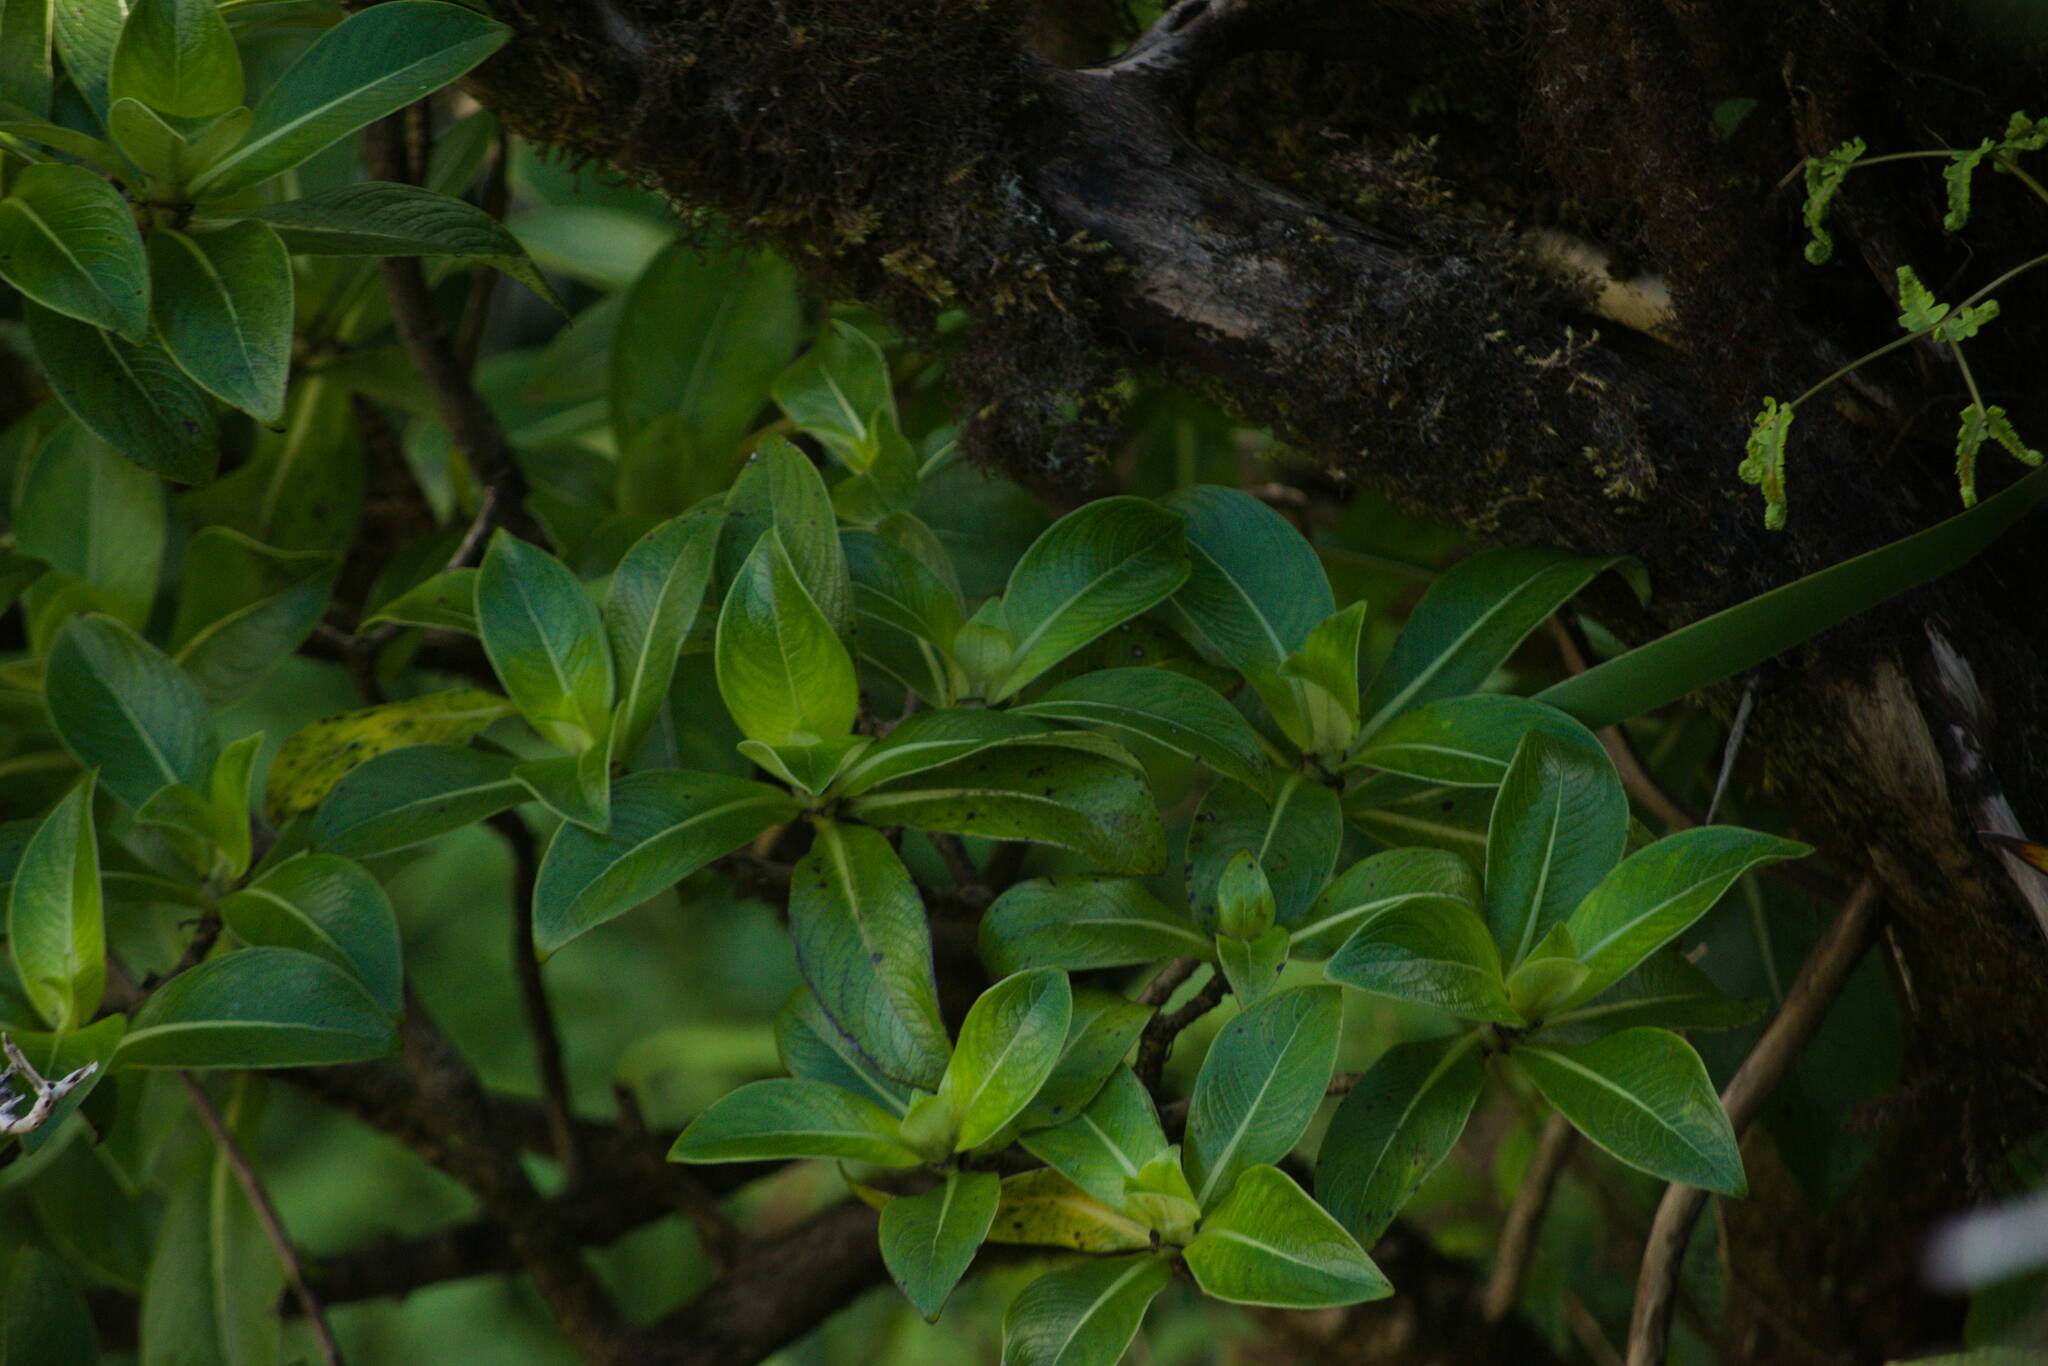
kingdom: Plantae
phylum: Tracheophyta
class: Magnoliopsida
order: Gentianales
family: Rubiaceae
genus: Kadua
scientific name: Kadua affinis
